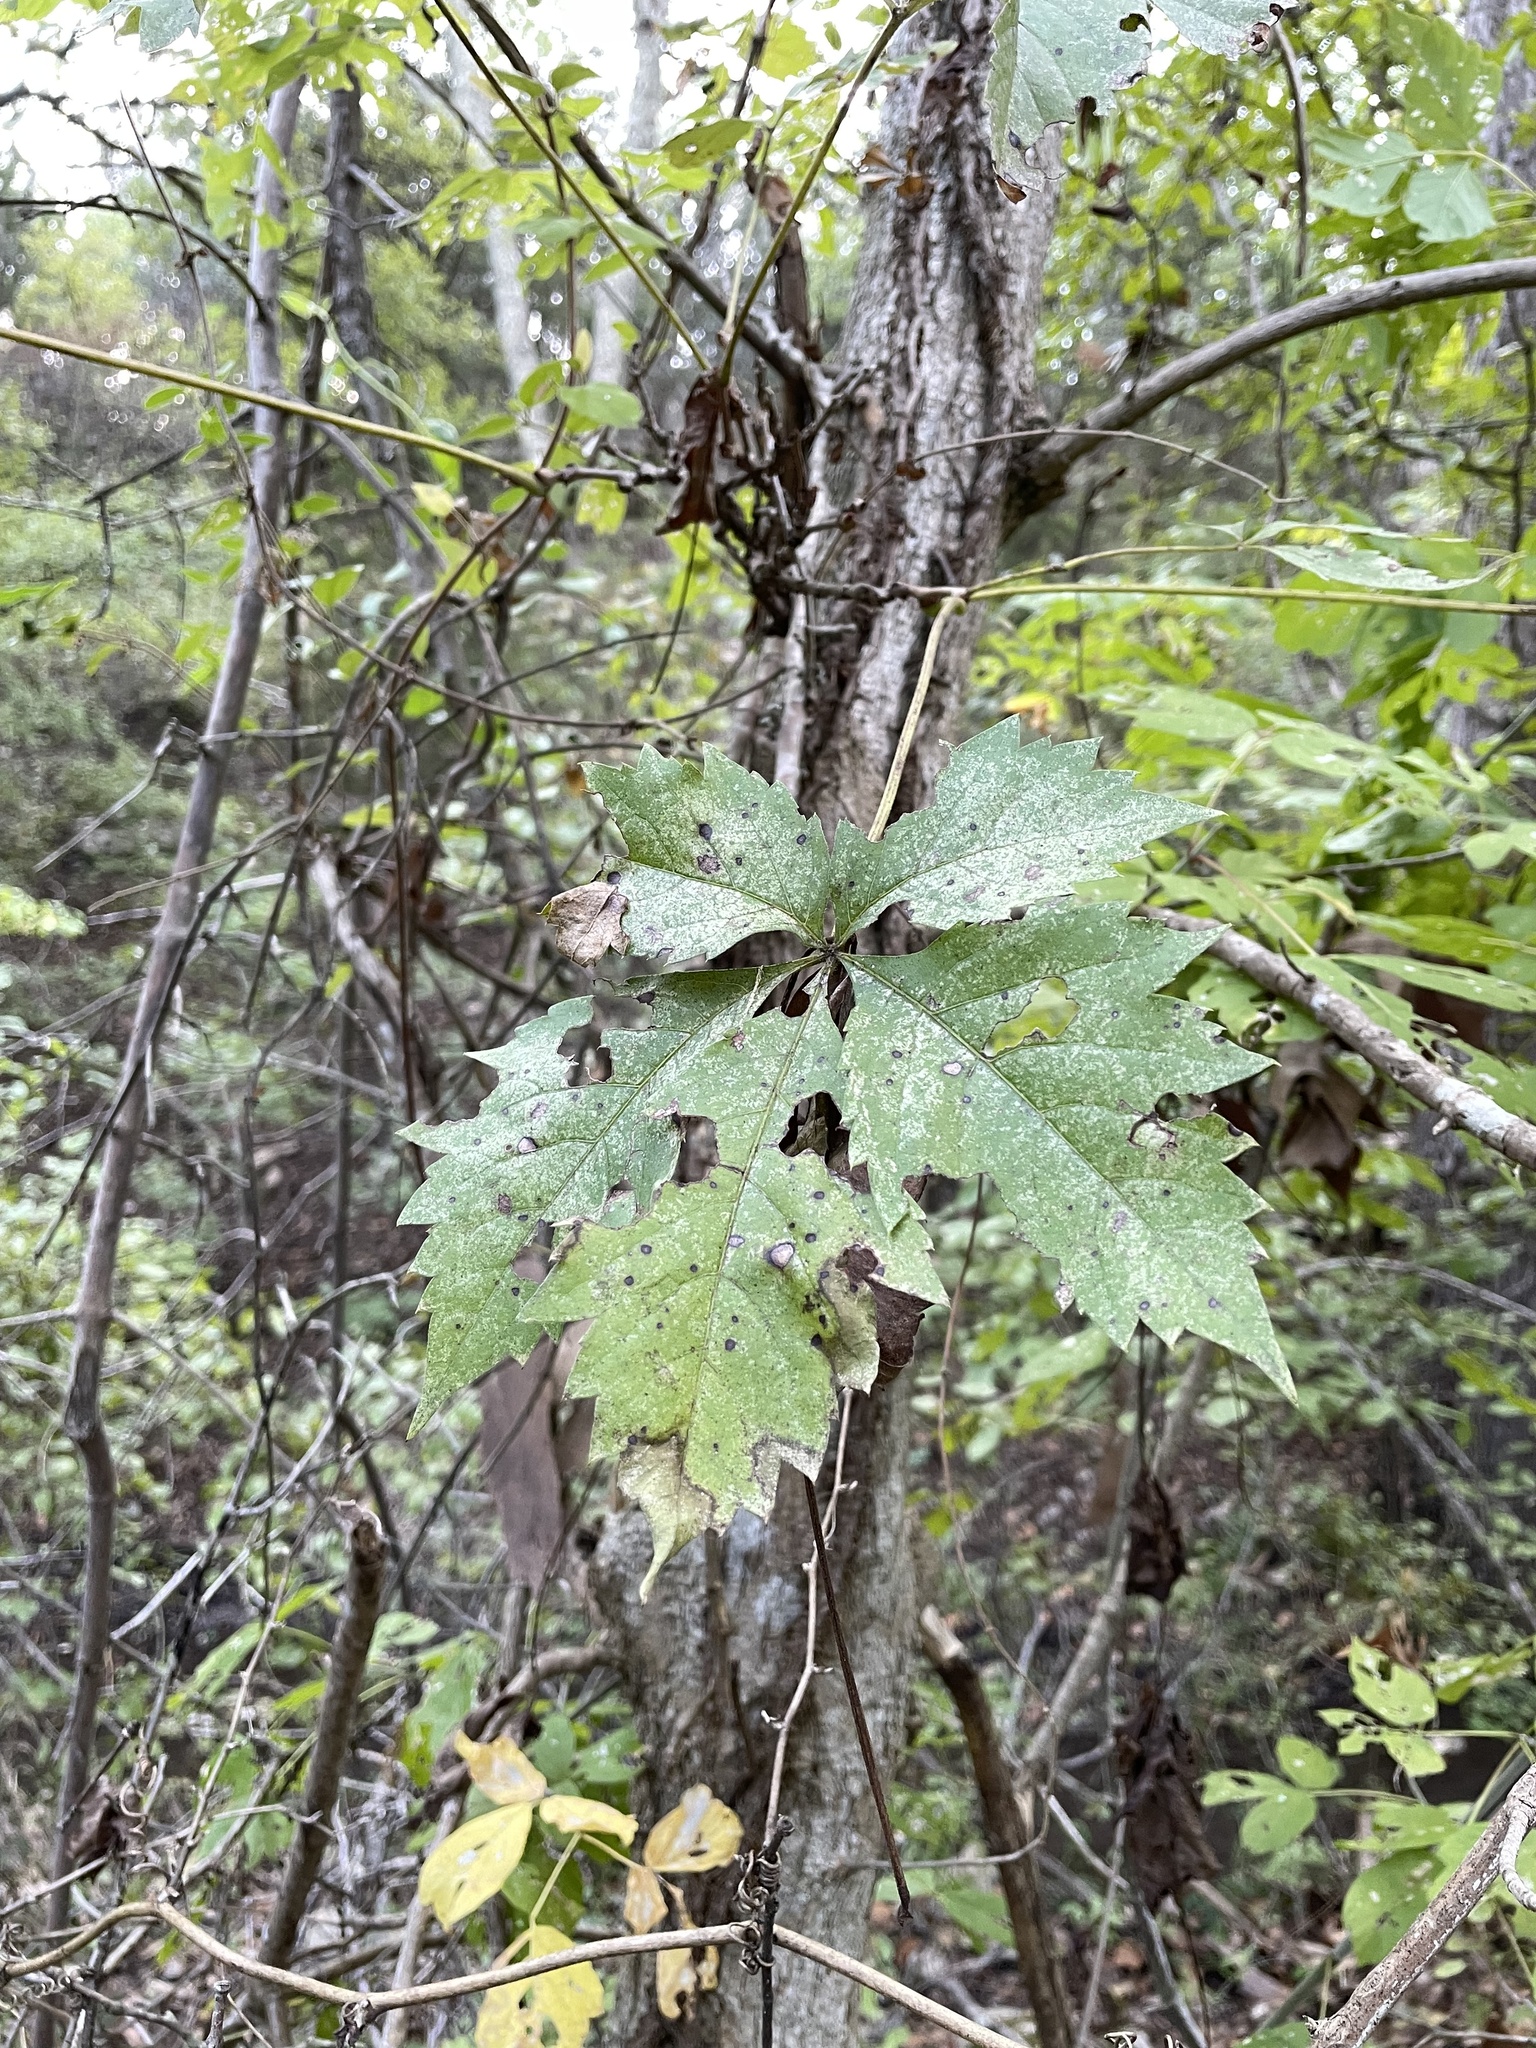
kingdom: Plantae
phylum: Tracheophyta
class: Magnoliopsida
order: Vitales
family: Vitaceae
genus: Parthenocissus
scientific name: Parthenocissus quinquefolia
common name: Virginia-creeper
